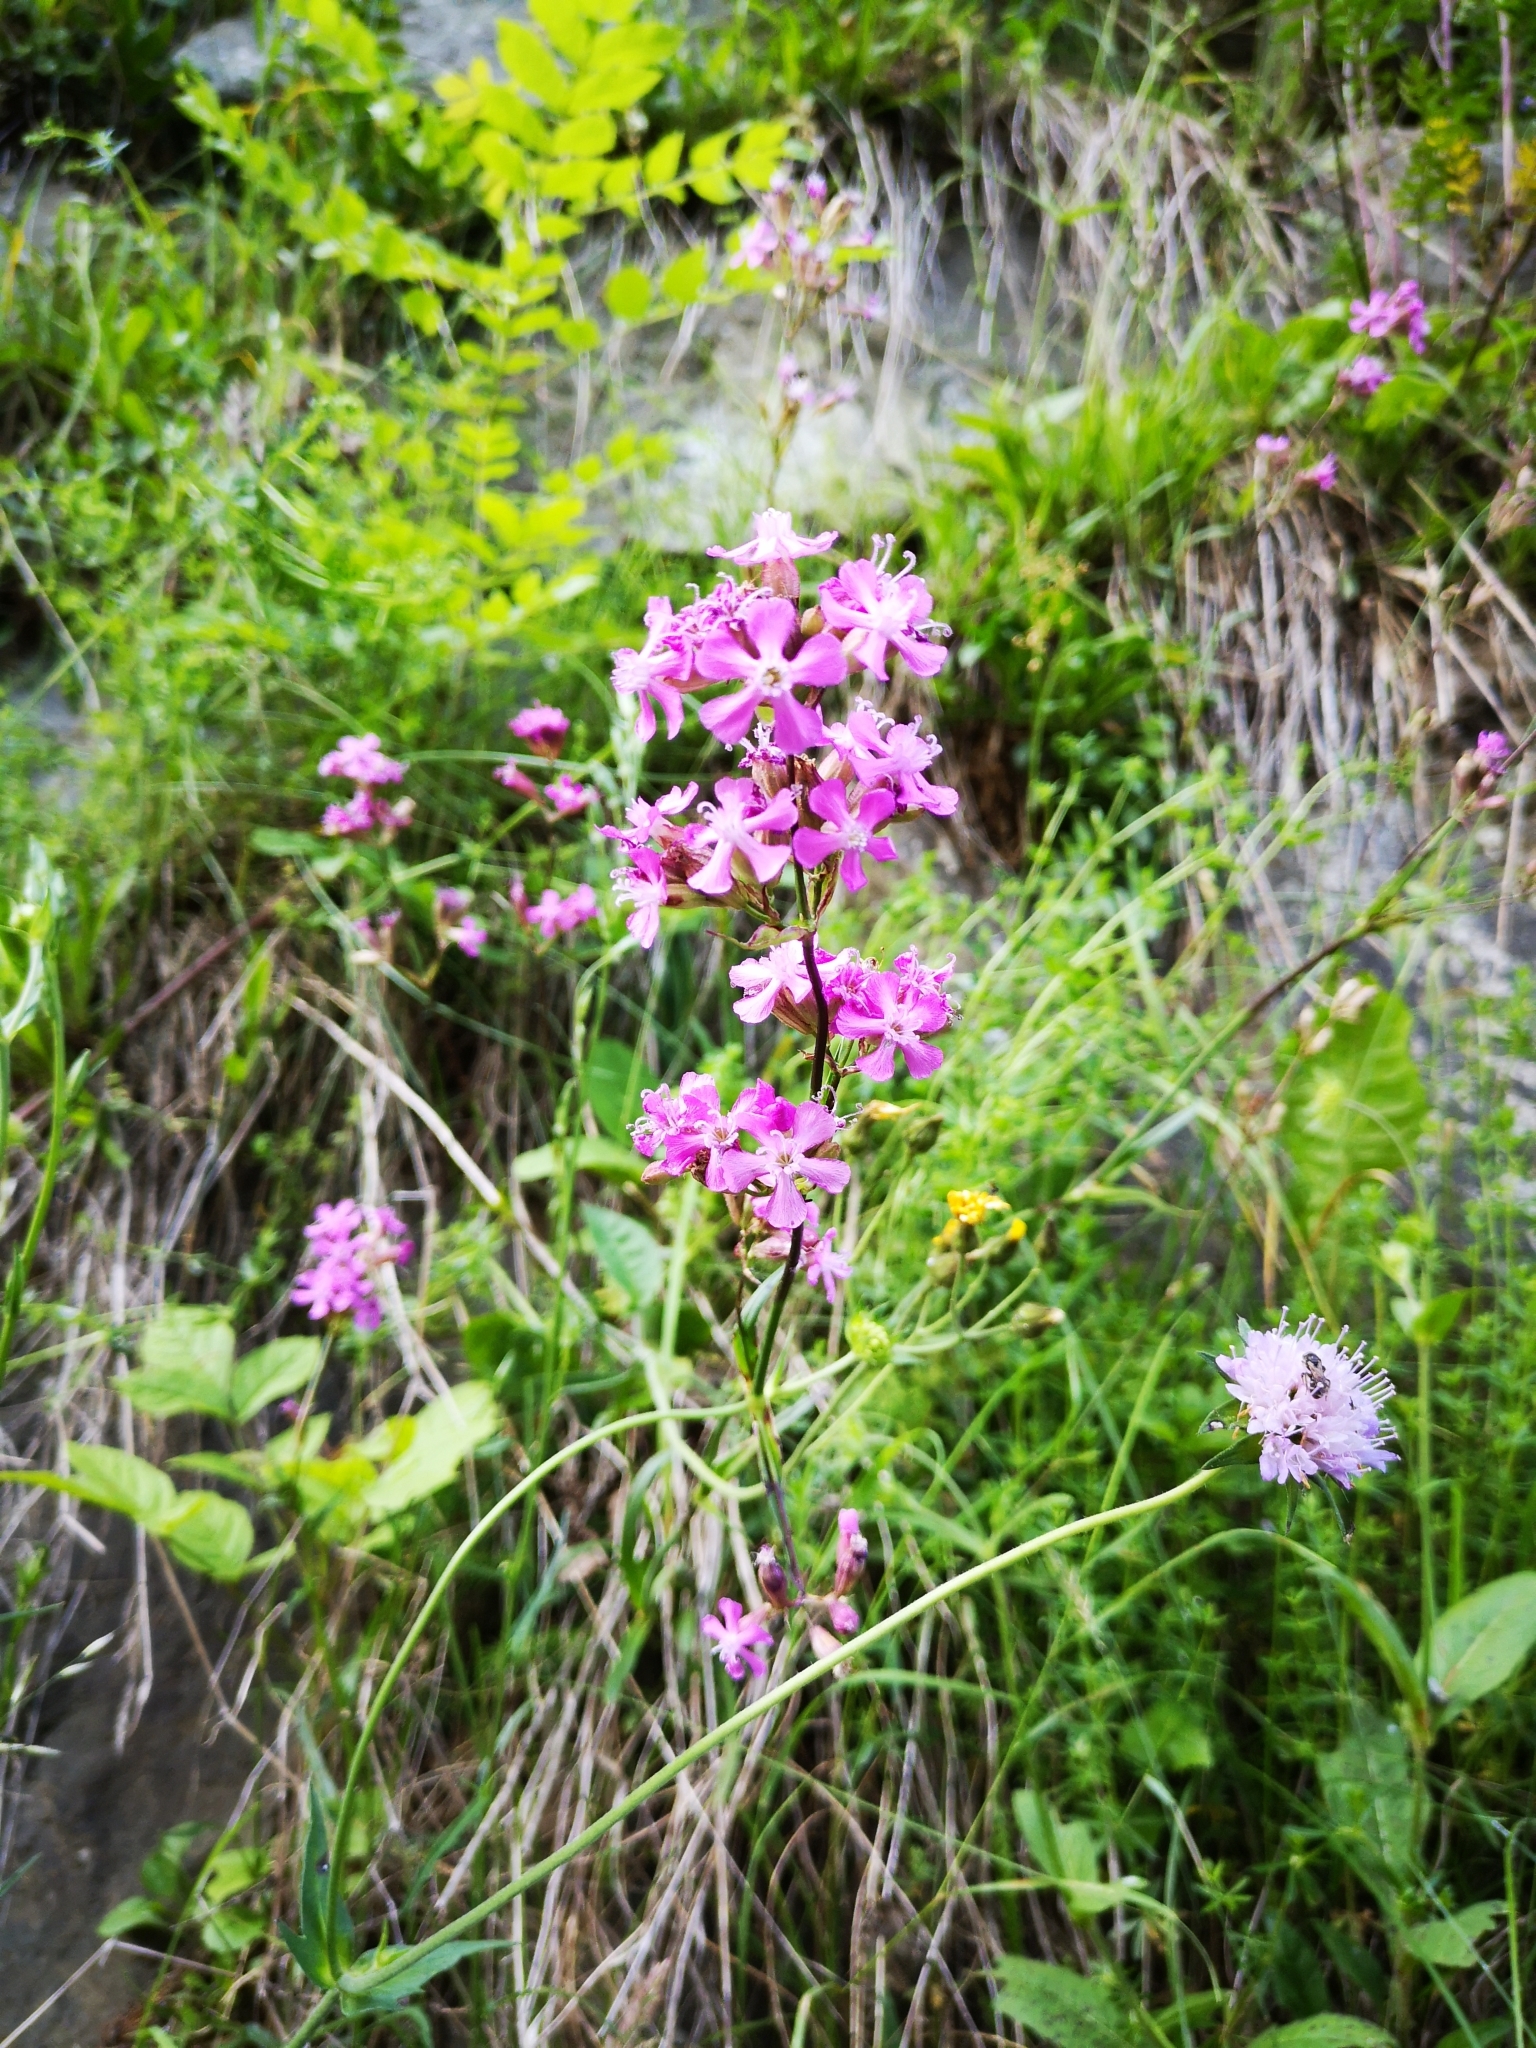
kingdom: Plantae
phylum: Tracheophyta
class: Magnoliopsida
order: Caryophyllales
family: Caryophyllaceae
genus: Viscaria
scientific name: Viscaria vulgaris
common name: Clammy campion
